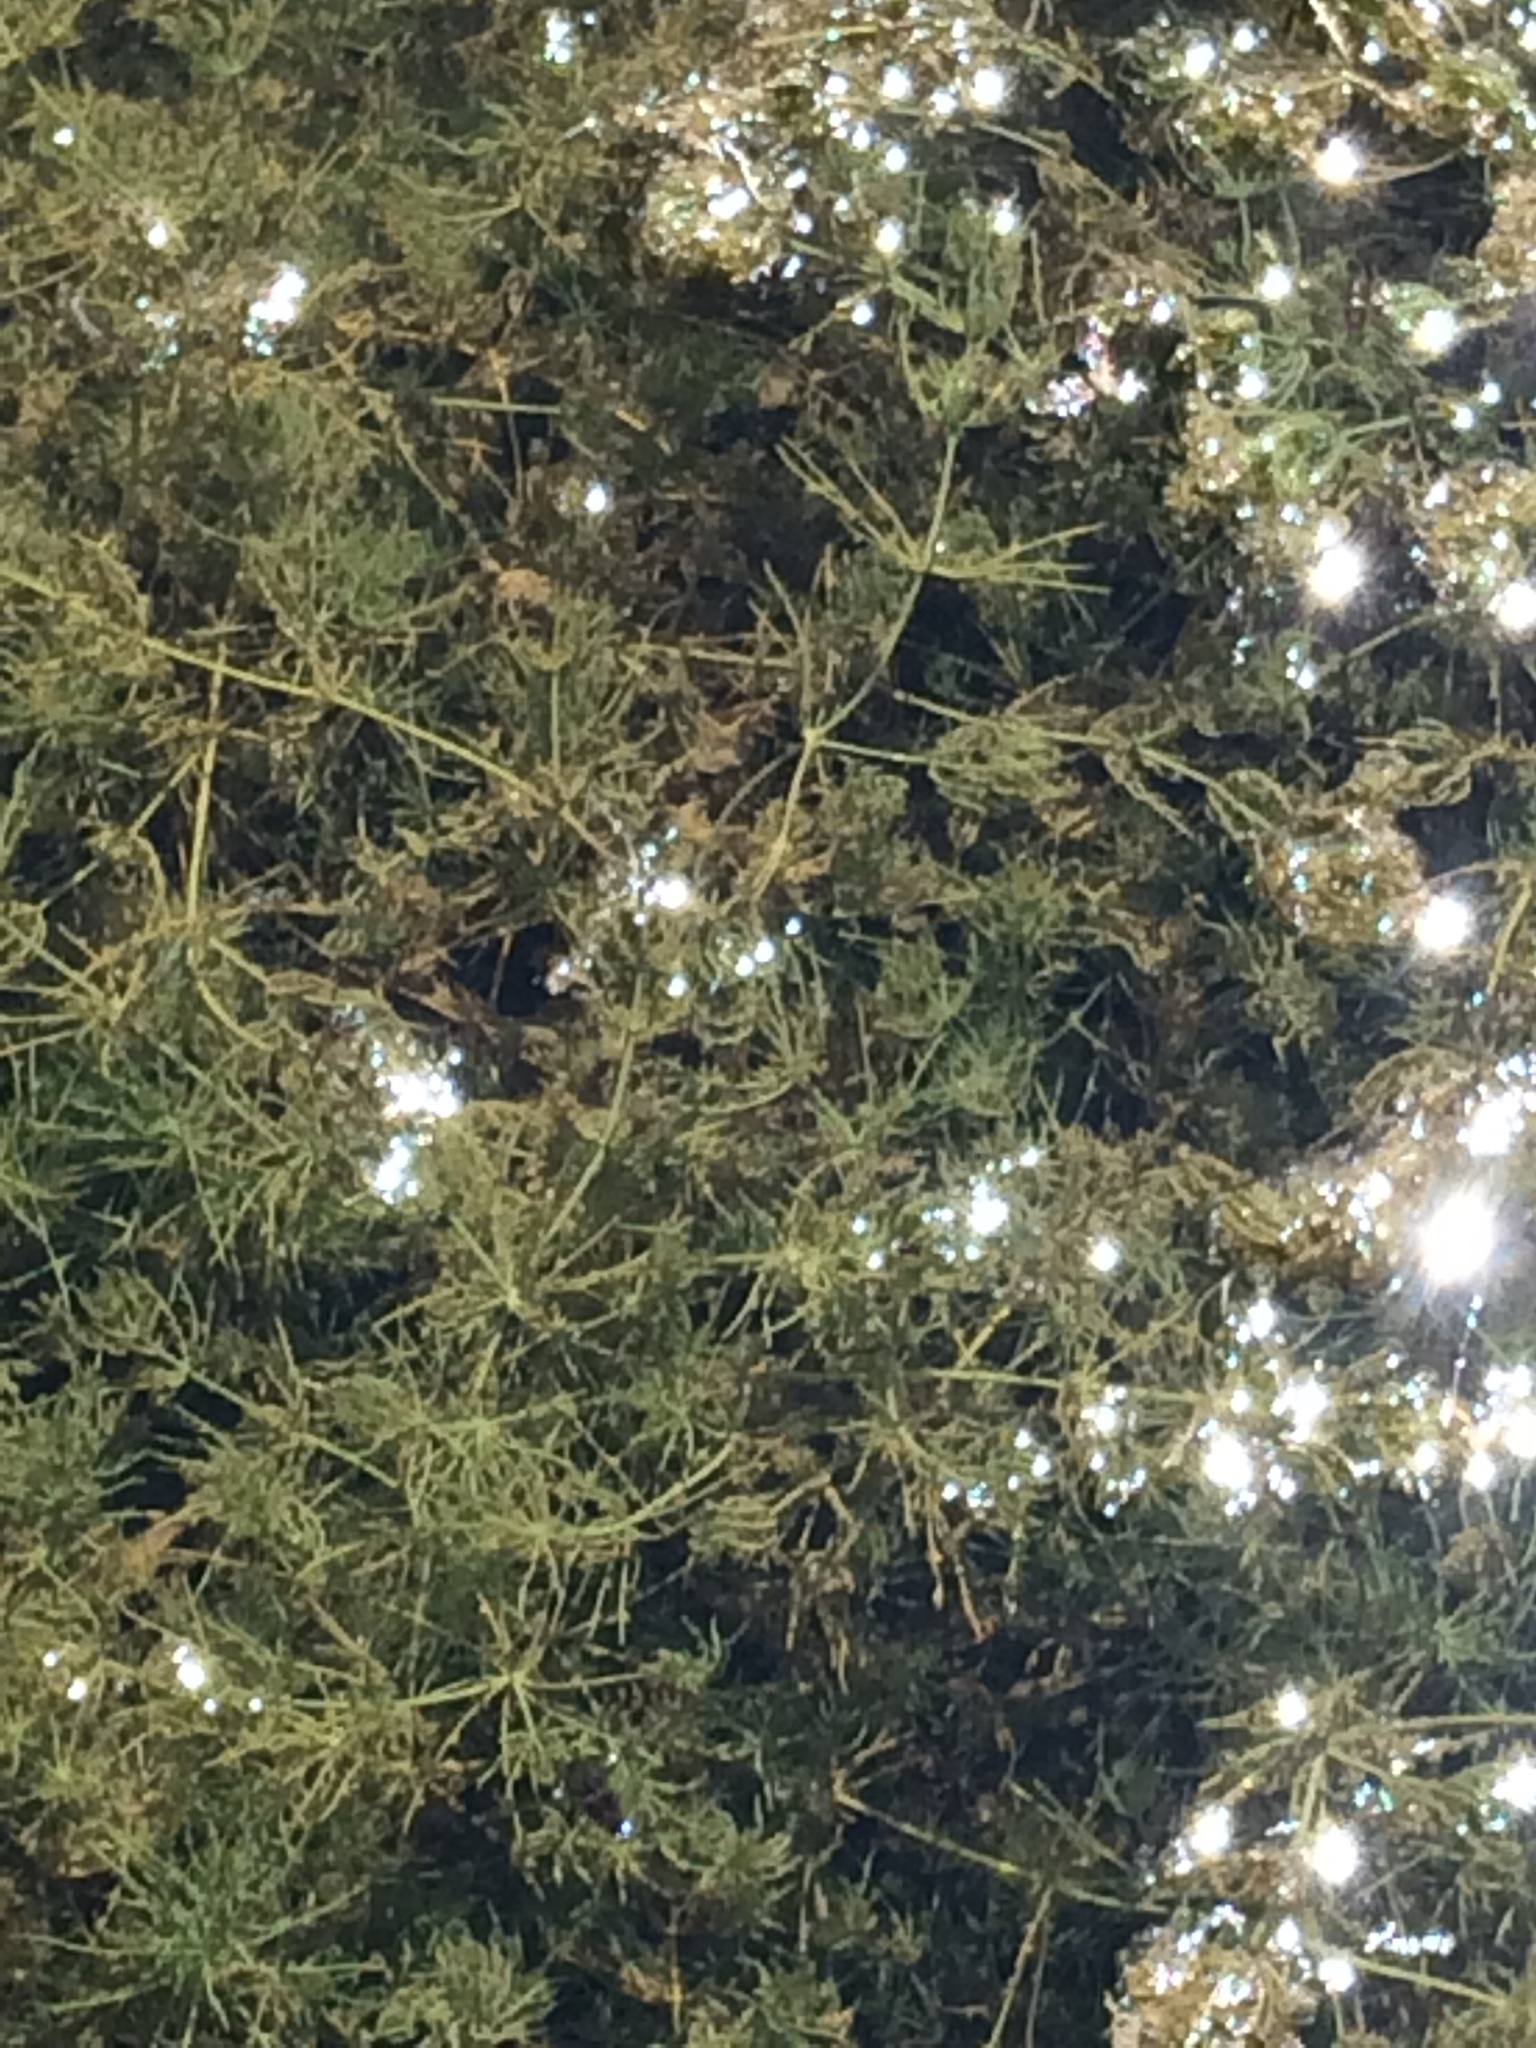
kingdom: Plantae
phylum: Tracheophyta
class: Magnoliopsida
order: Ceratophyllales
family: Ceratophyllaceae
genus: Ceratophyllum
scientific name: Ceratophyllum demersum
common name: Rigid hornwort
